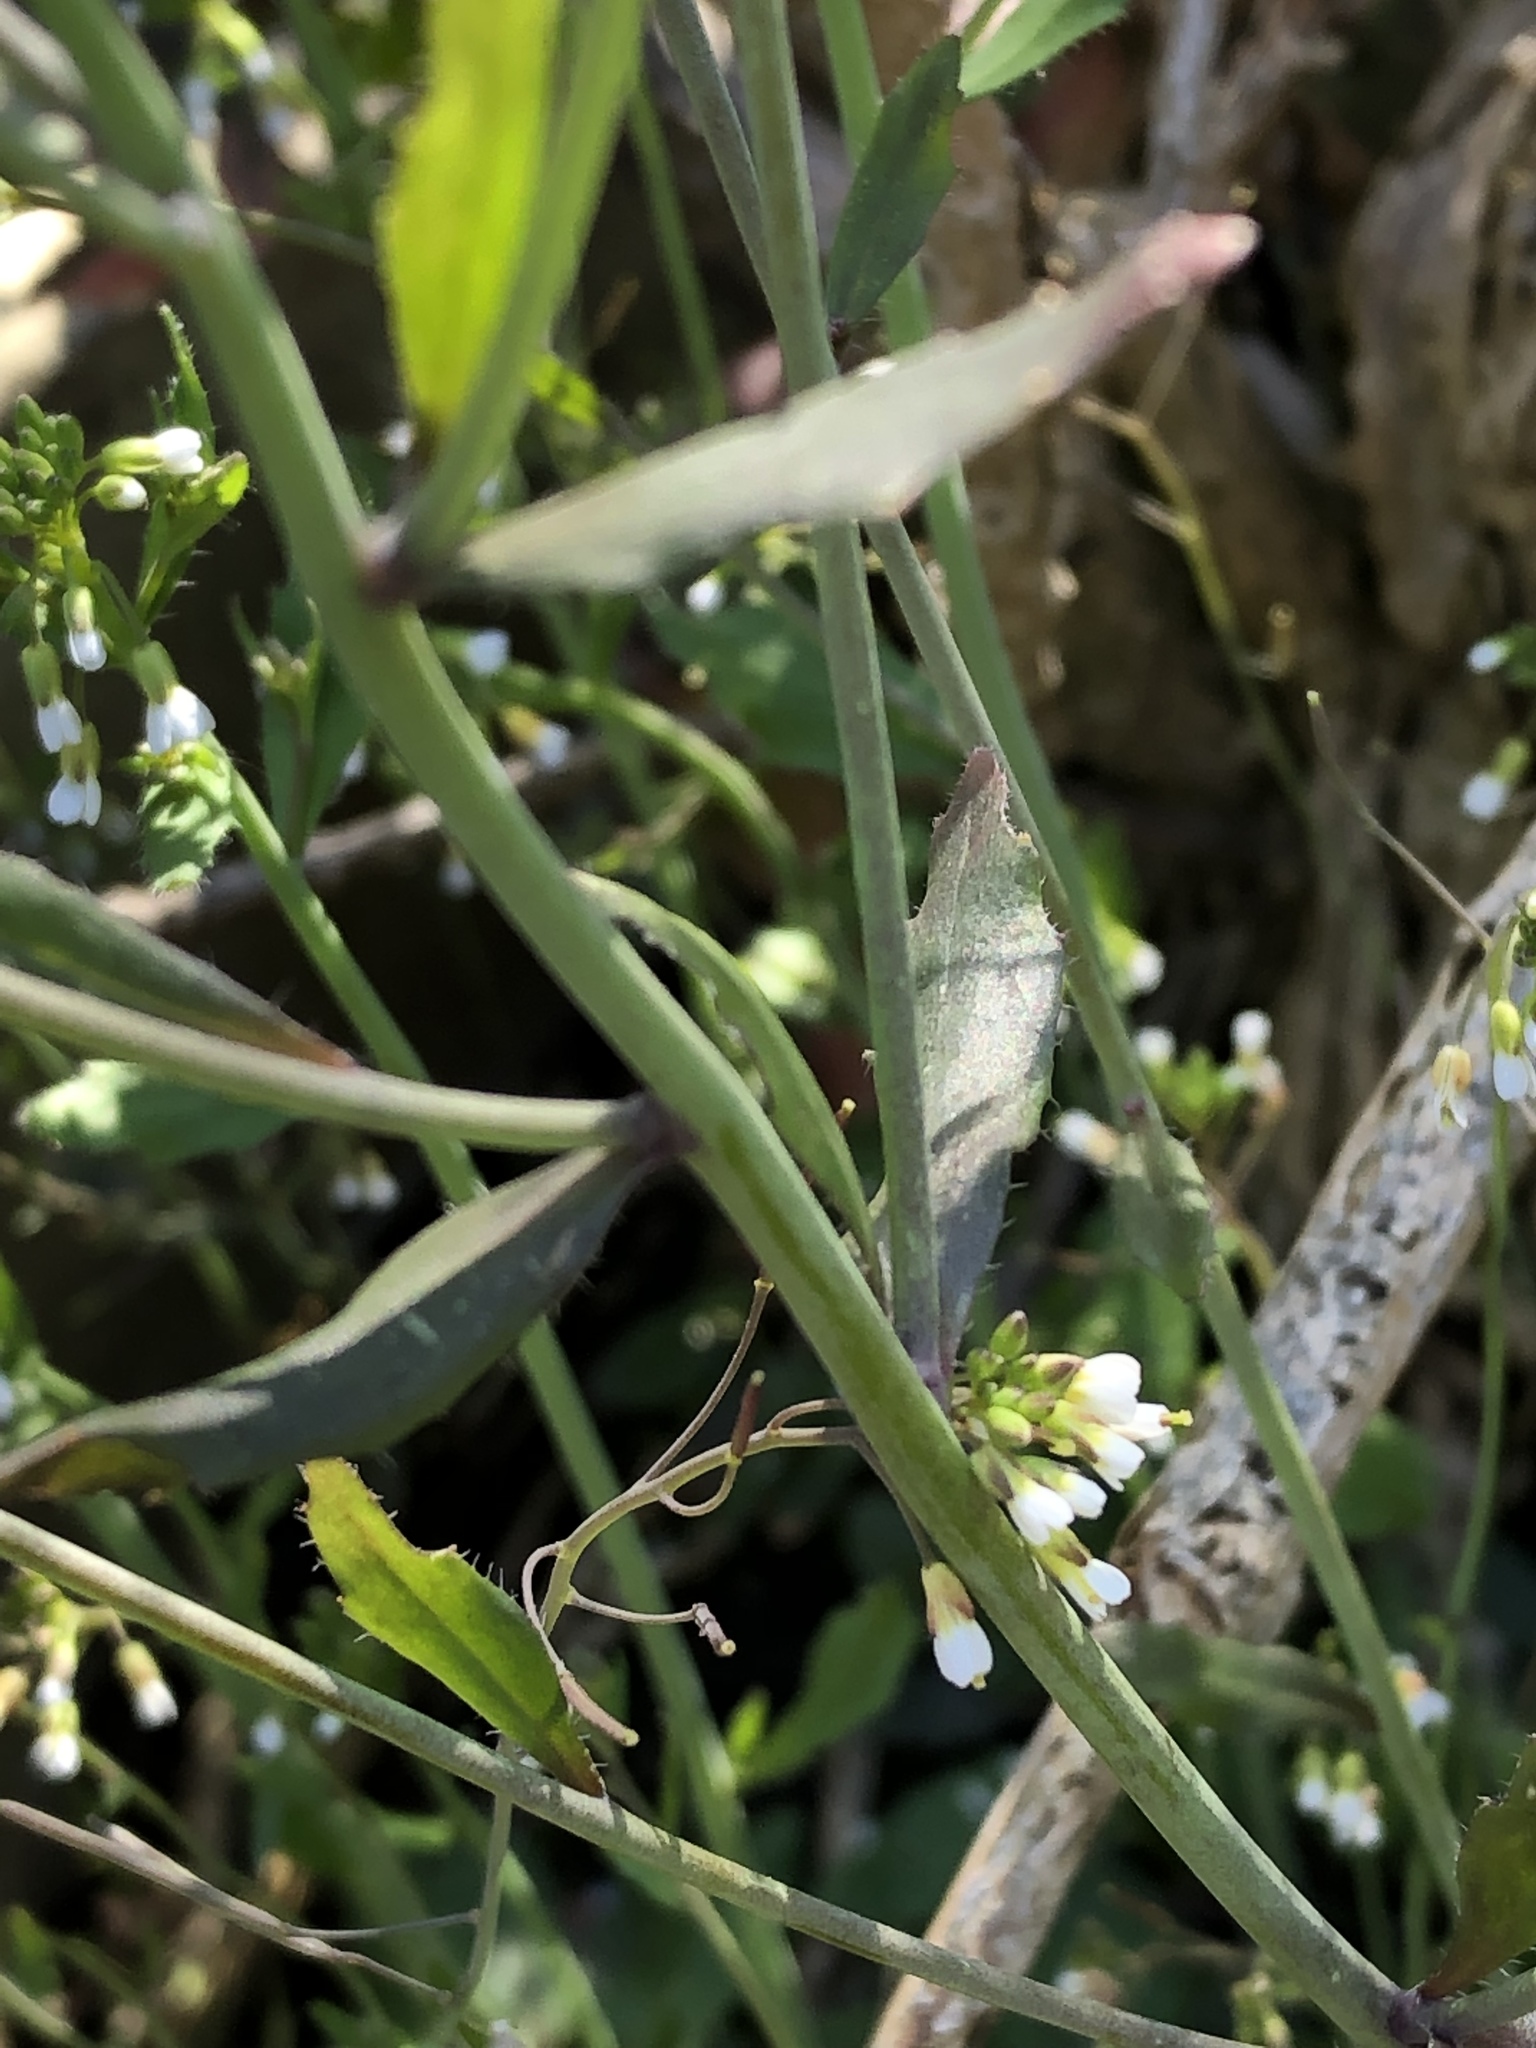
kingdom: Plantae
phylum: Tracheophyta
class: Magnoliopsida
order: Brassicales
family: Brassicaceae
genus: Arabidopsis
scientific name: Arabidopsis thaliana
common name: Thale cress
